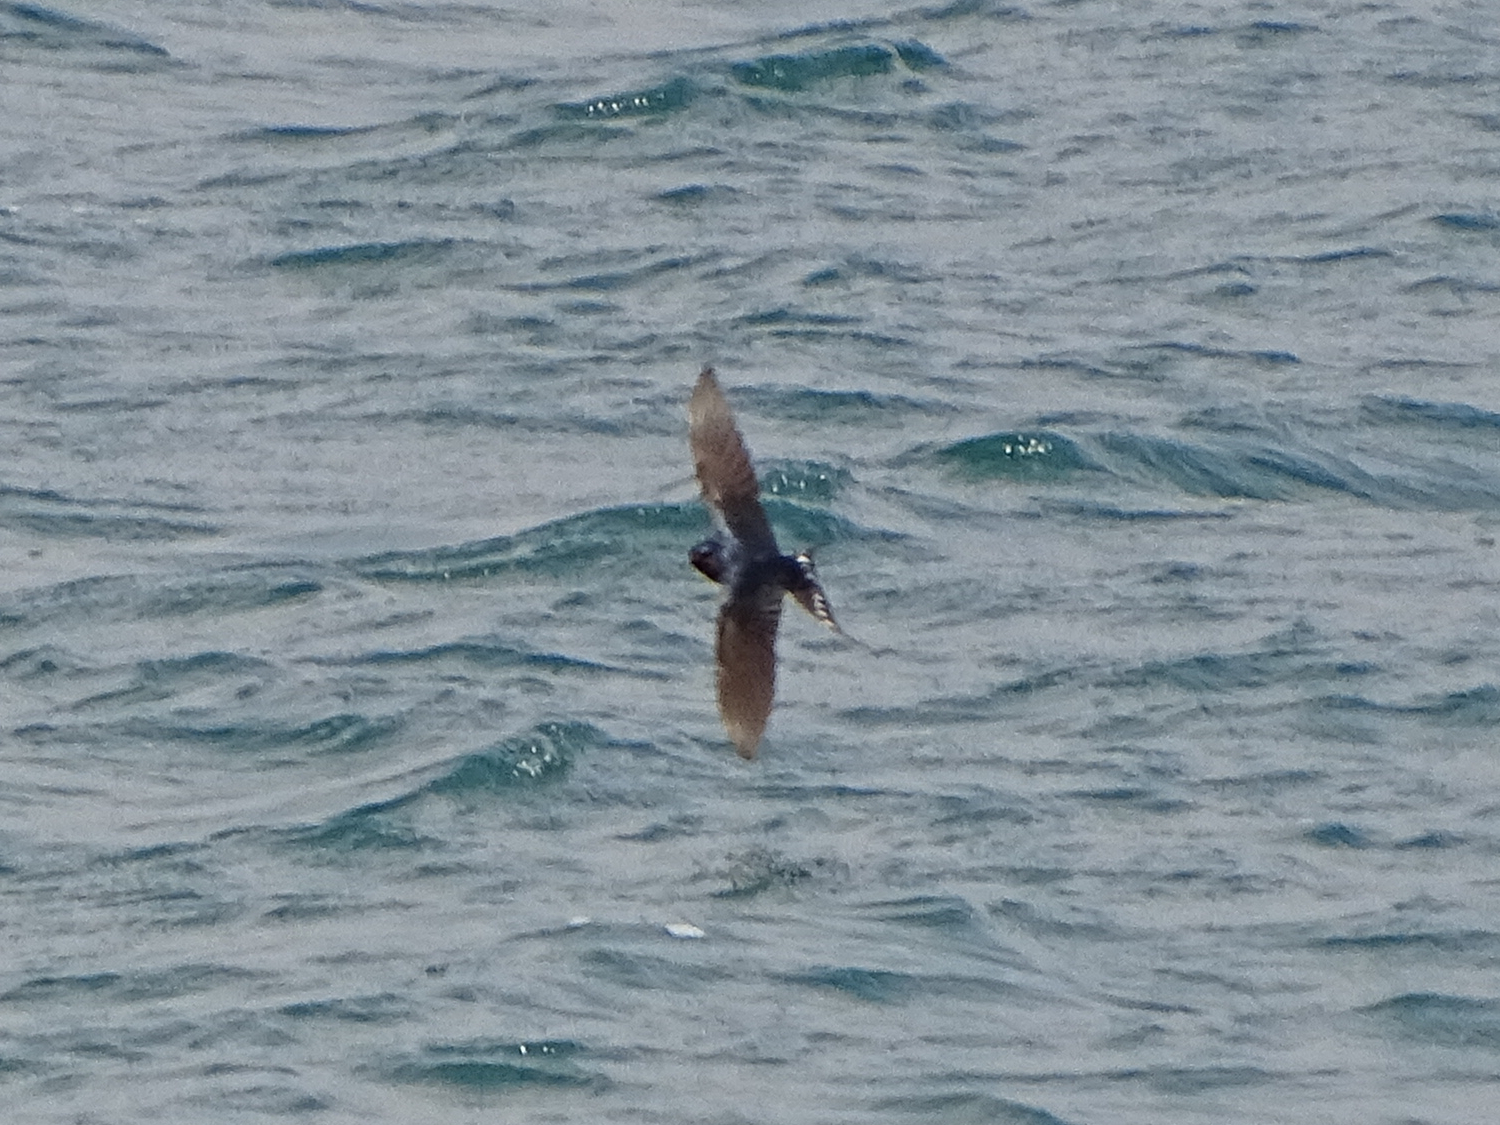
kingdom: Animalia
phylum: Chordata
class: Aves
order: Passeriformes
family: Hirundinidae
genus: Hirundo
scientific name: Hirundo rustica
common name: Barn swallow
